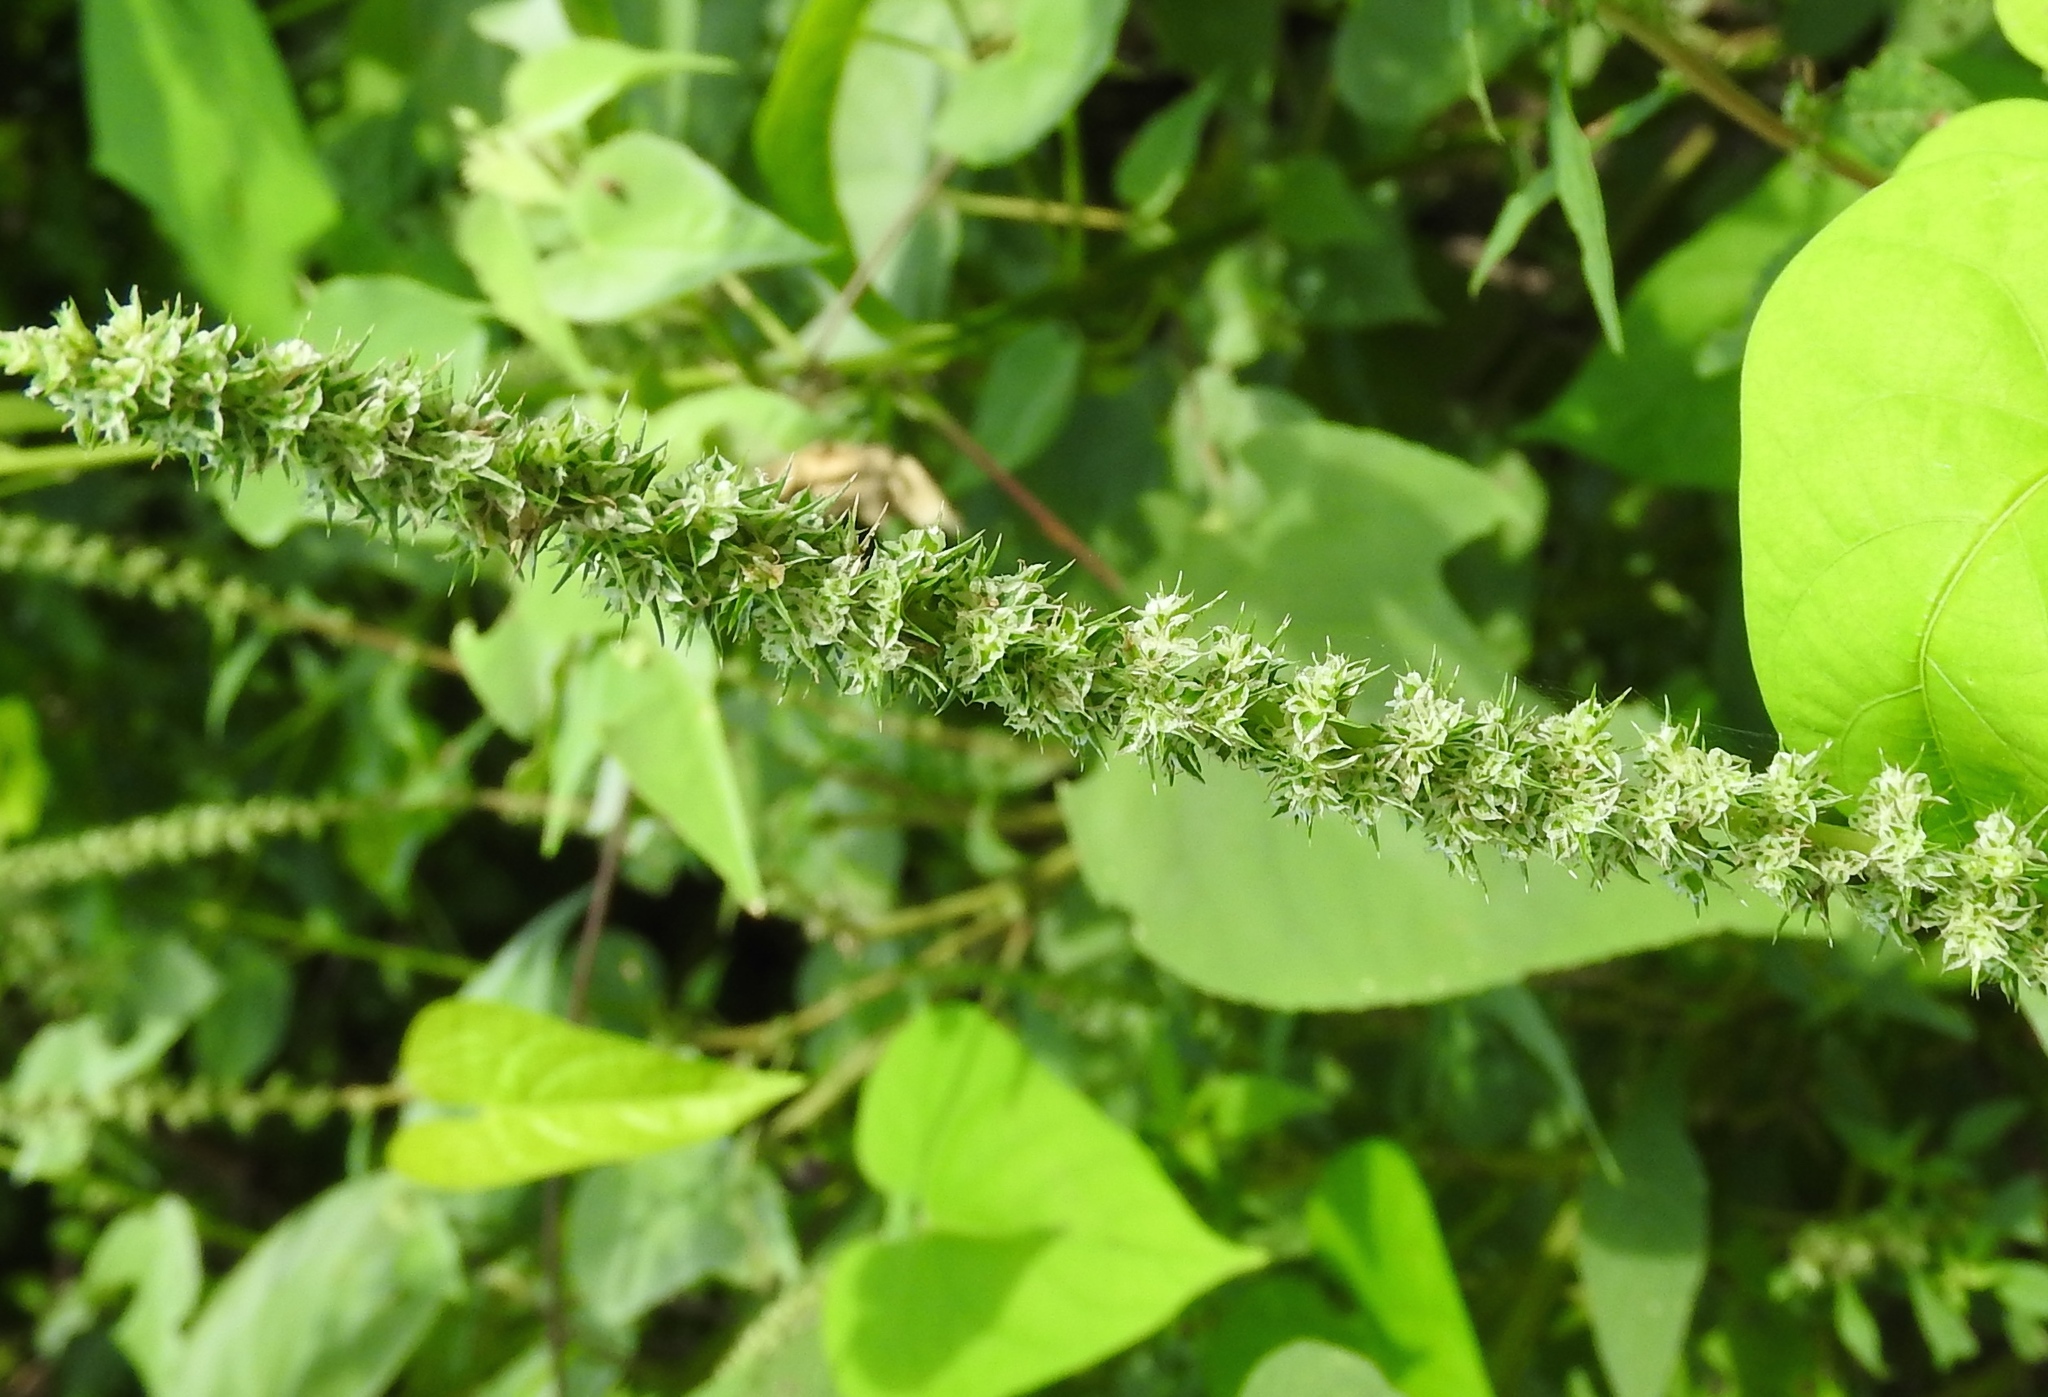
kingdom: Plantae
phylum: Tracheophyta
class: Magnoliopsida
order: Caryophyllales
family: Amaranthaceae
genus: Amaranthus
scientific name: Amaranthus
